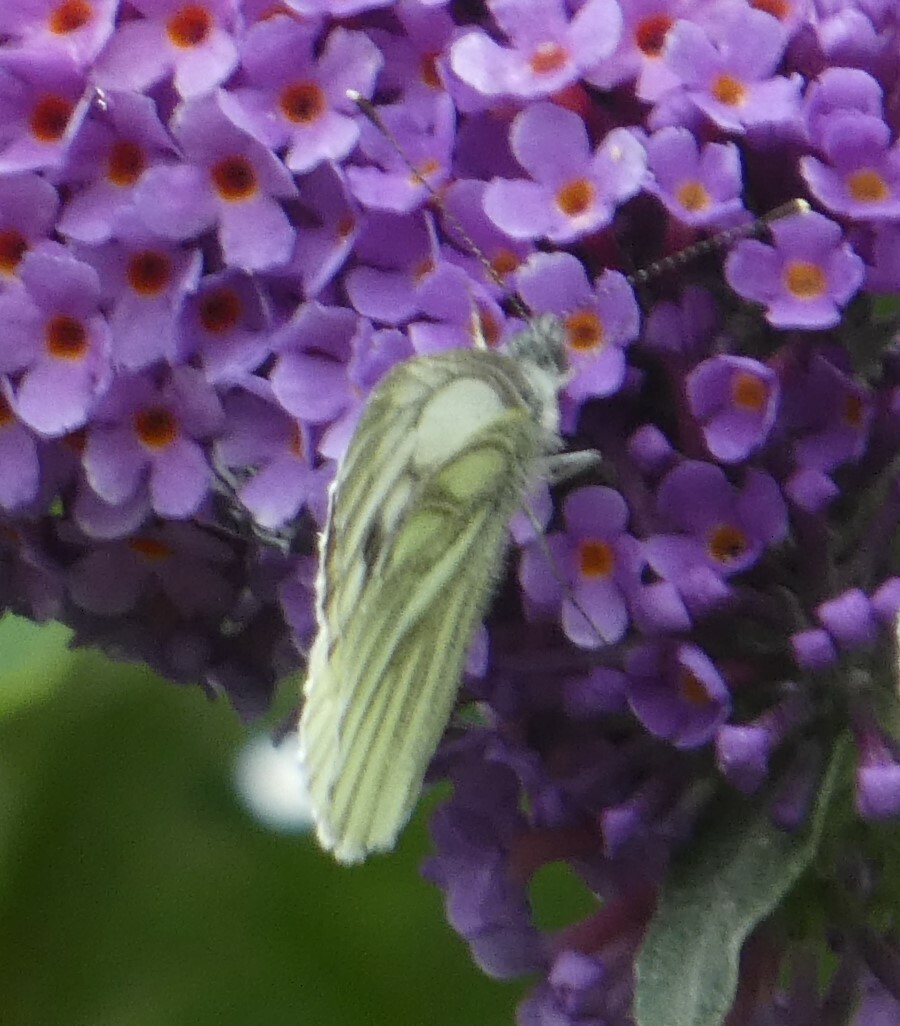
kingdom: Animalia
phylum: Arthropoda
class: Insecta
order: Lepidoptera
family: Pieridae
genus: Pieris
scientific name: Pieris napi
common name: Green-veined white
